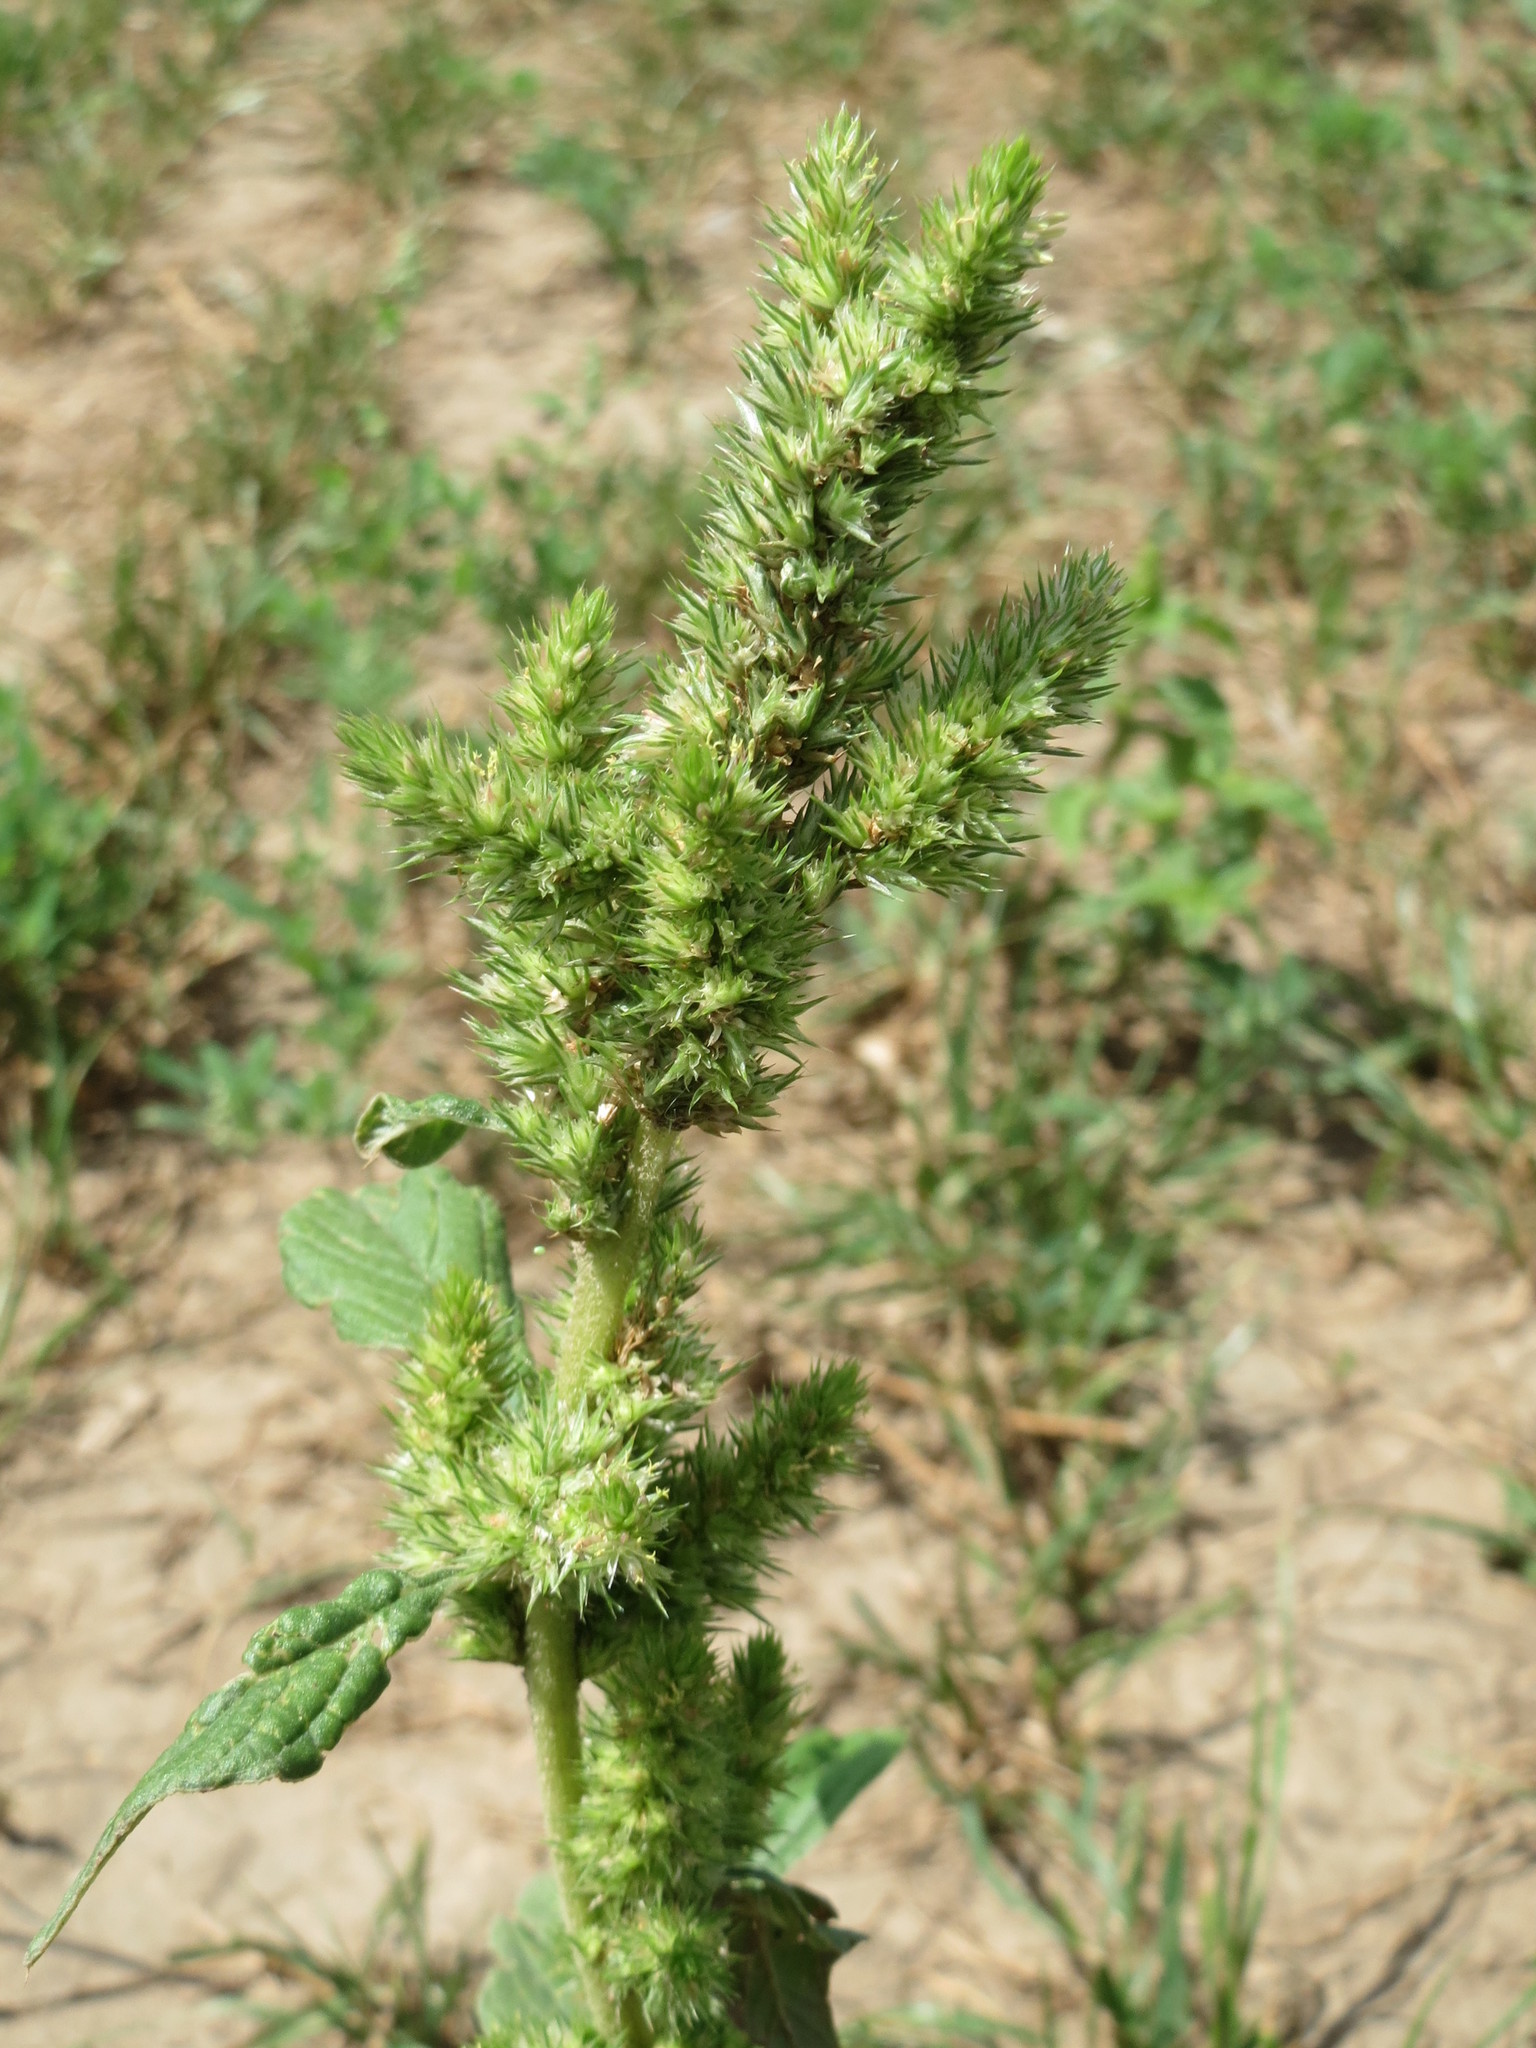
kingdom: Plantae
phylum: Tracheophyta
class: Magnoliopsida
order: Caryophyllales
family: Amaranthaceae
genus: Amaranthus
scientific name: Amaranthus retroflexus
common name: Redroot amaranth
